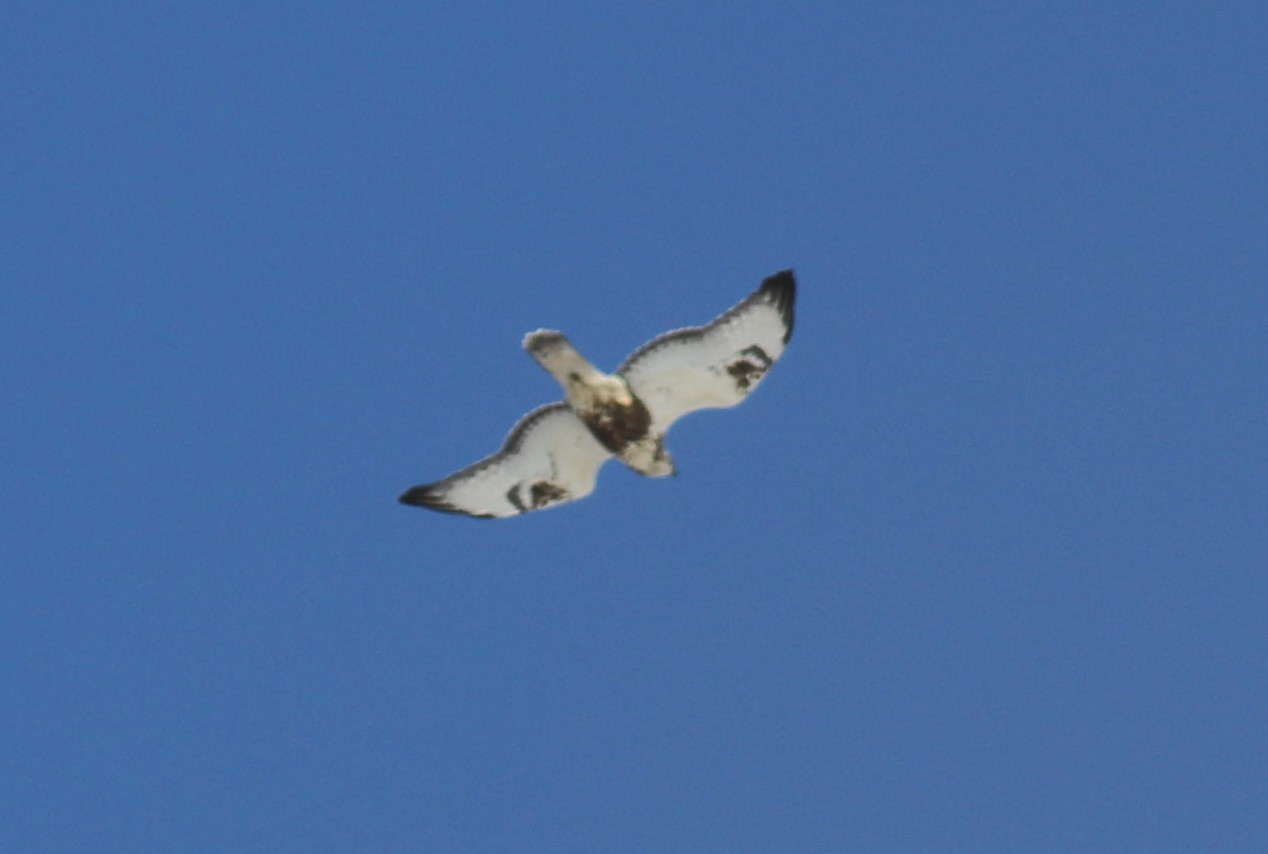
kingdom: Animalia
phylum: Chordata
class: Aves
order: Accipitriformes
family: Accipitridae
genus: Buteo
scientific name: Buteo lagopus
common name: Rough-legged buzzard
